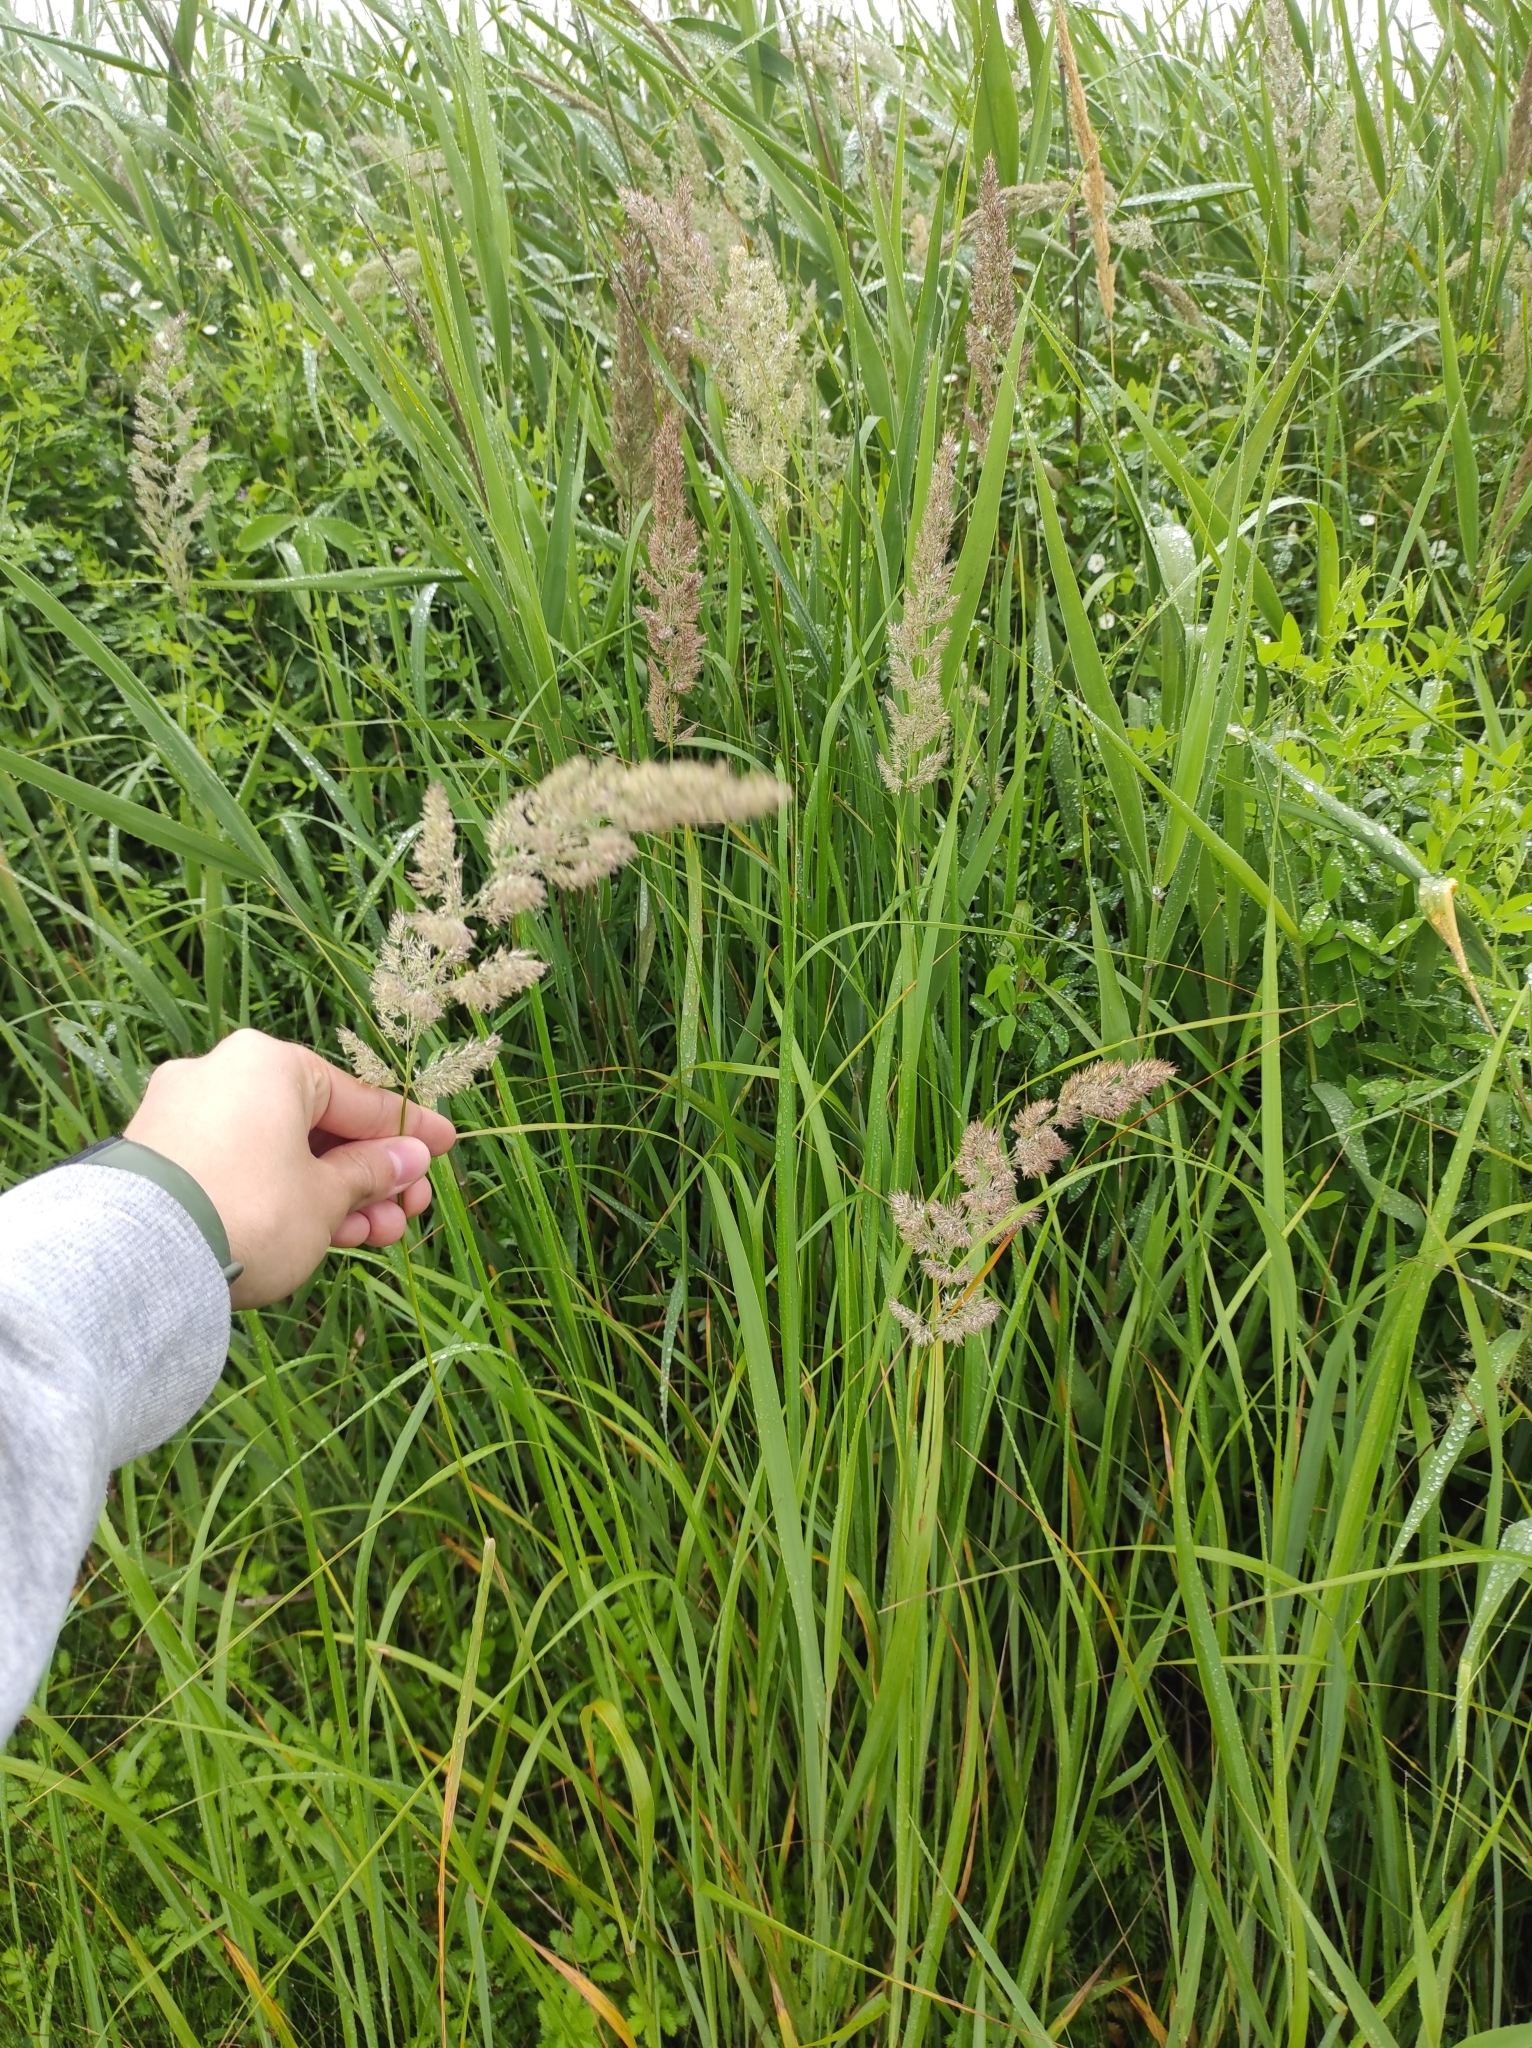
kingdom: Plantae
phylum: Tracheophyta
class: Liliopsida
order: Poales
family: Poaceae
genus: Calamagrostis
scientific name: Calamagrostis extremiorientalis
